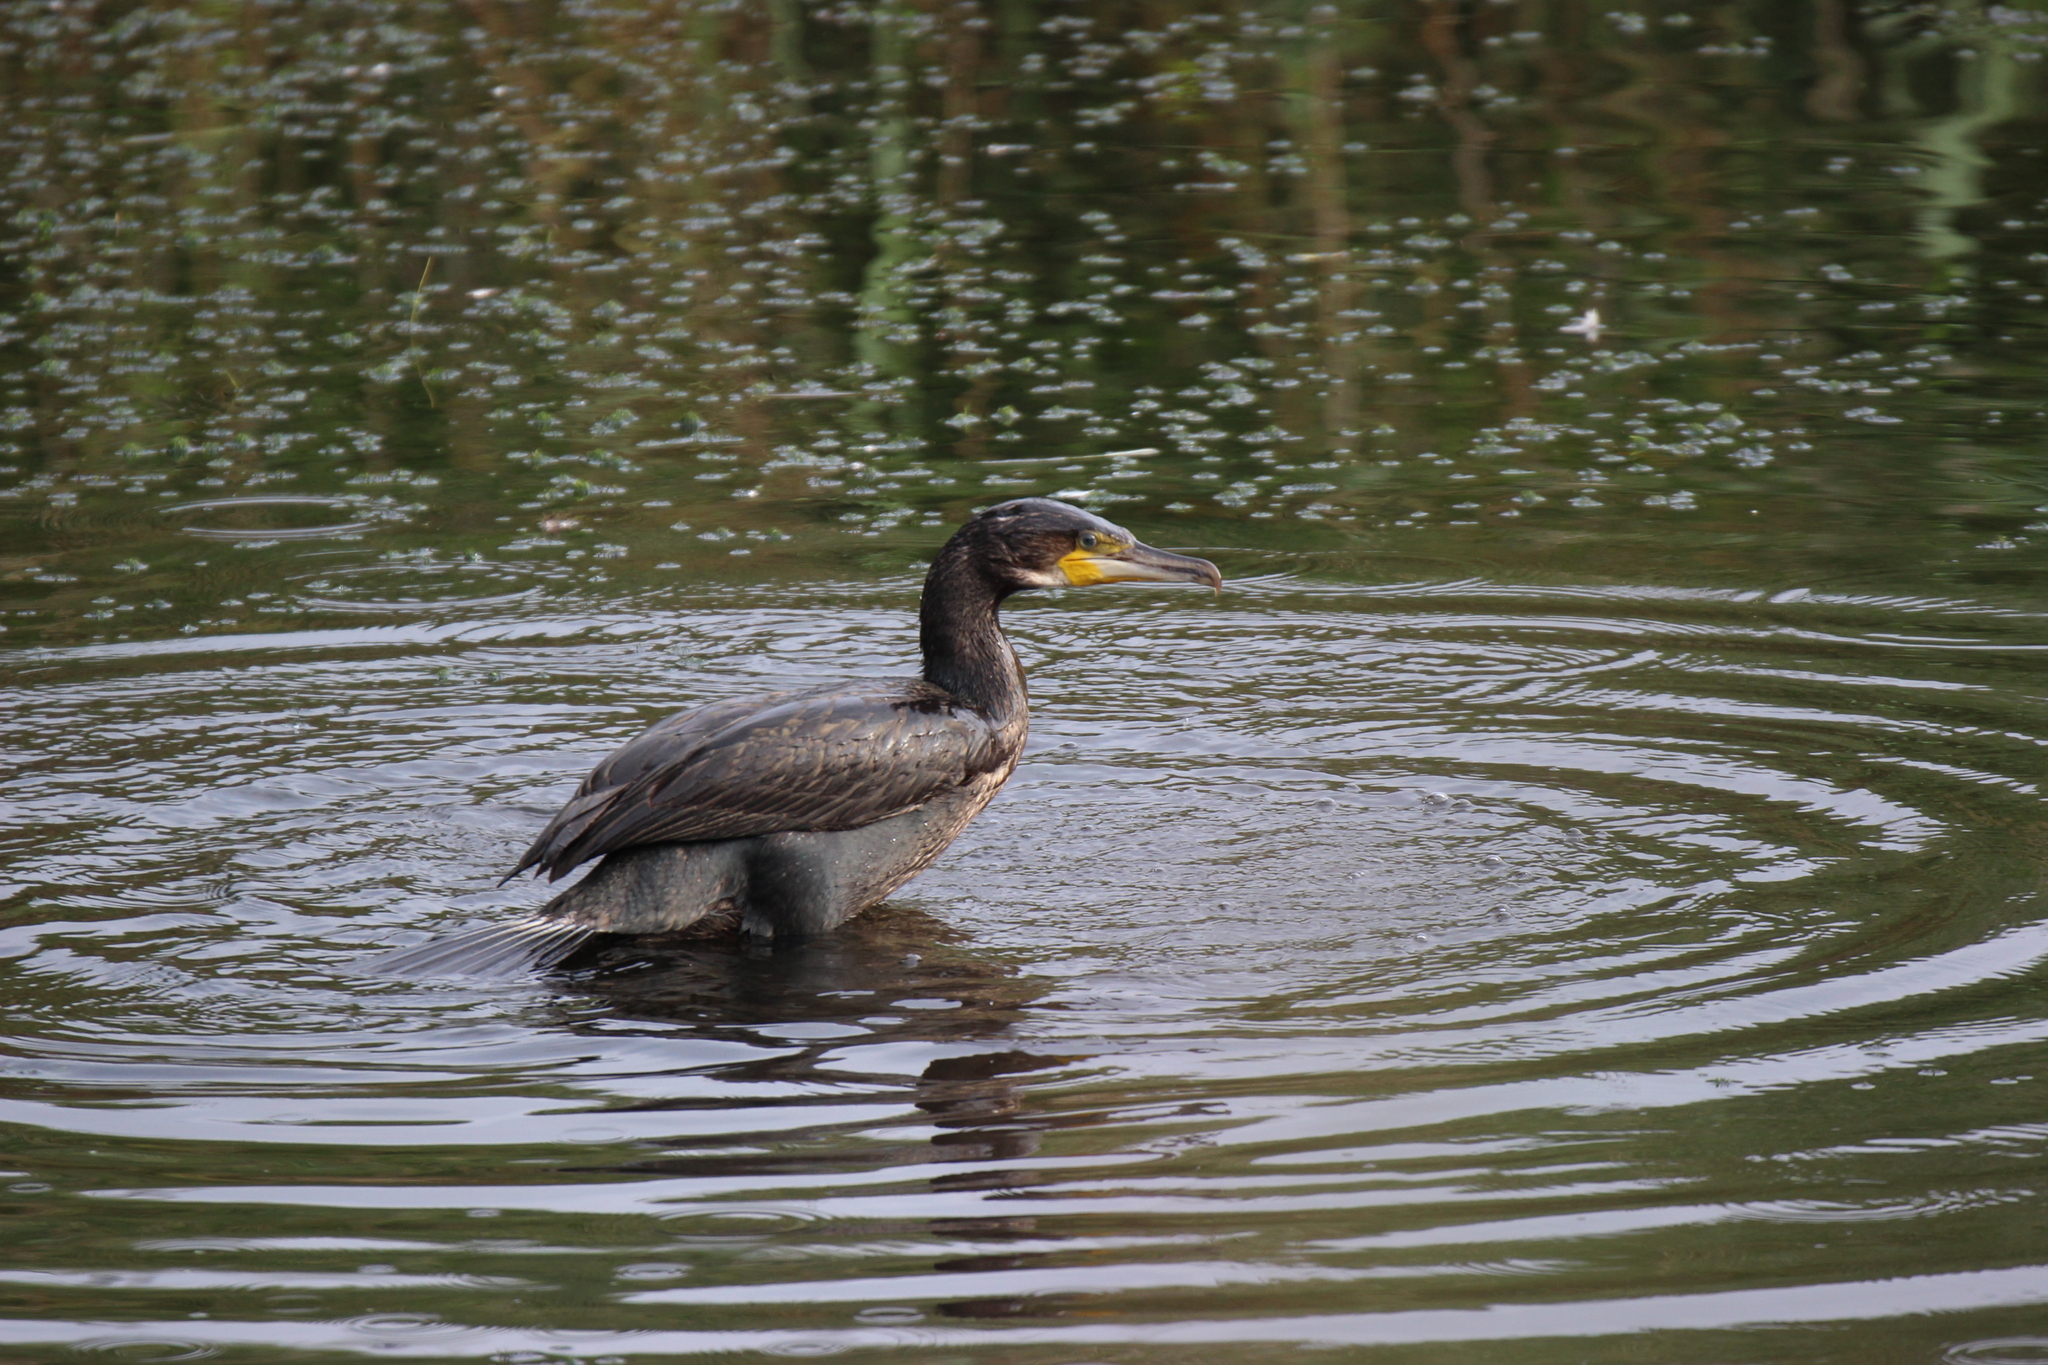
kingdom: Animalia
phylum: Chordata
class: Aves
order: Suliformes
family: Phalacrocoracidae
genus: Phalacrocorax
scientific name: Phalacrocorax carbo
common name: Great cormorant
